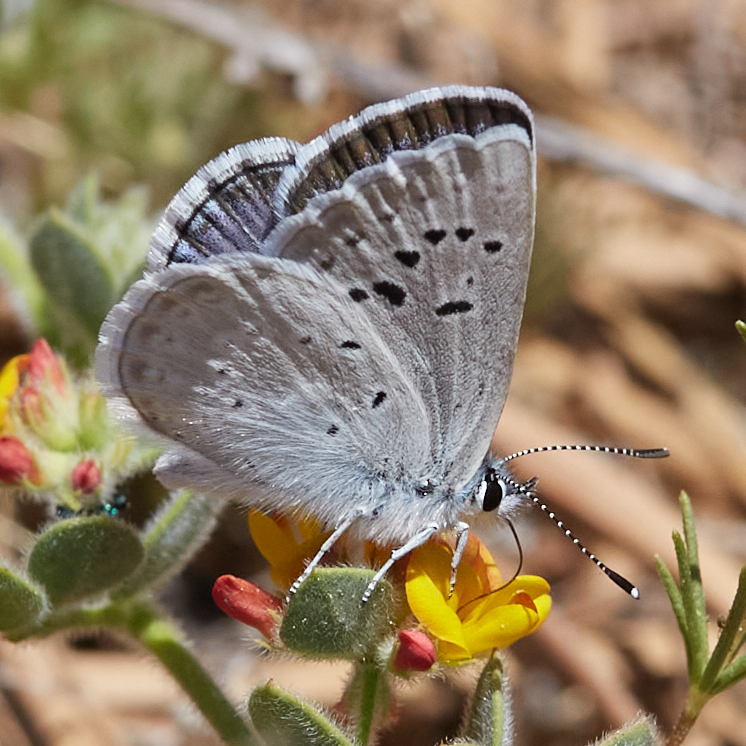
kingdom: Animalia
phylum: Arthropoda
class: Insecta
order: Lepidoptera
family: Lycaenidae
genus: Icaricia
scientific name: Icaricia icarioides
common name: Boisduval's blue
